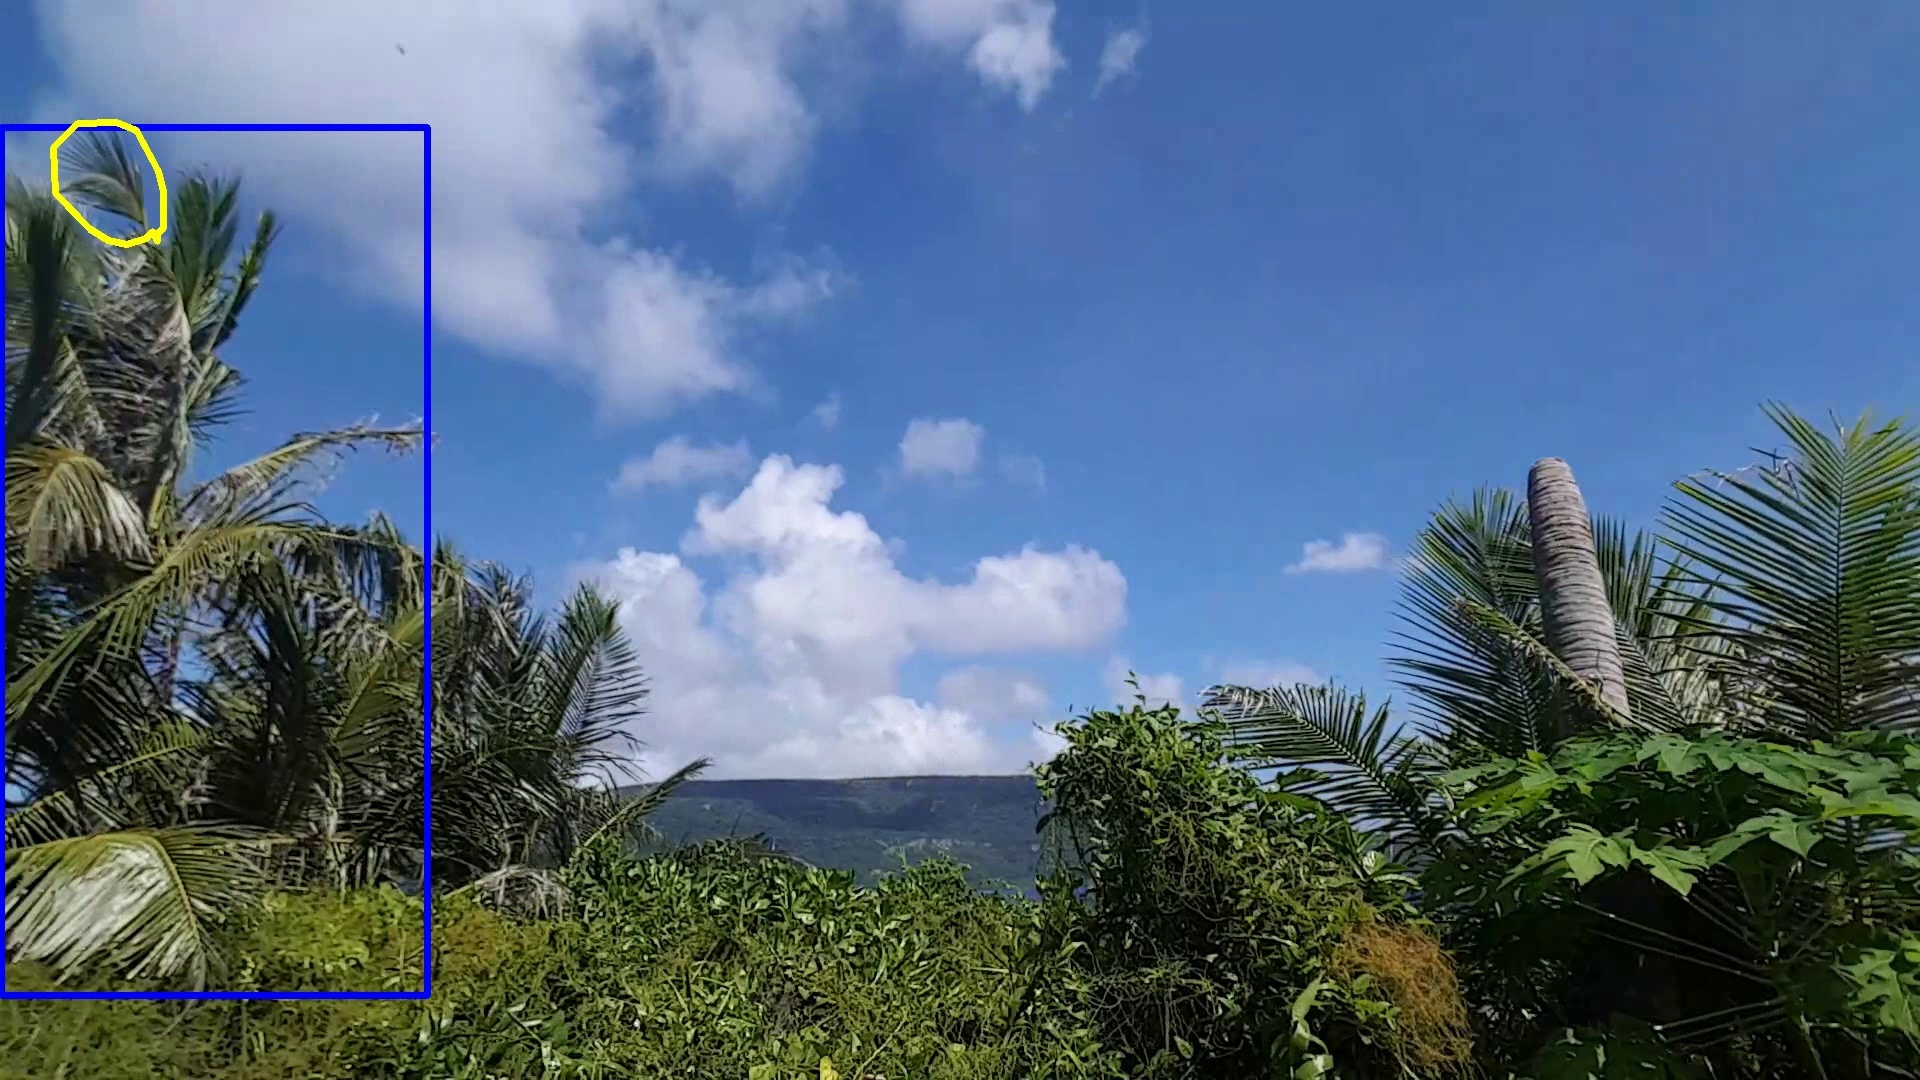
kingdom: Plantae
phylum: Tracheophyta
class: Liliopsida
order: Arecales
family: Arecaceae
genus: Cocos
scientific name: Cocos nucifera
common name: Coconut palm
